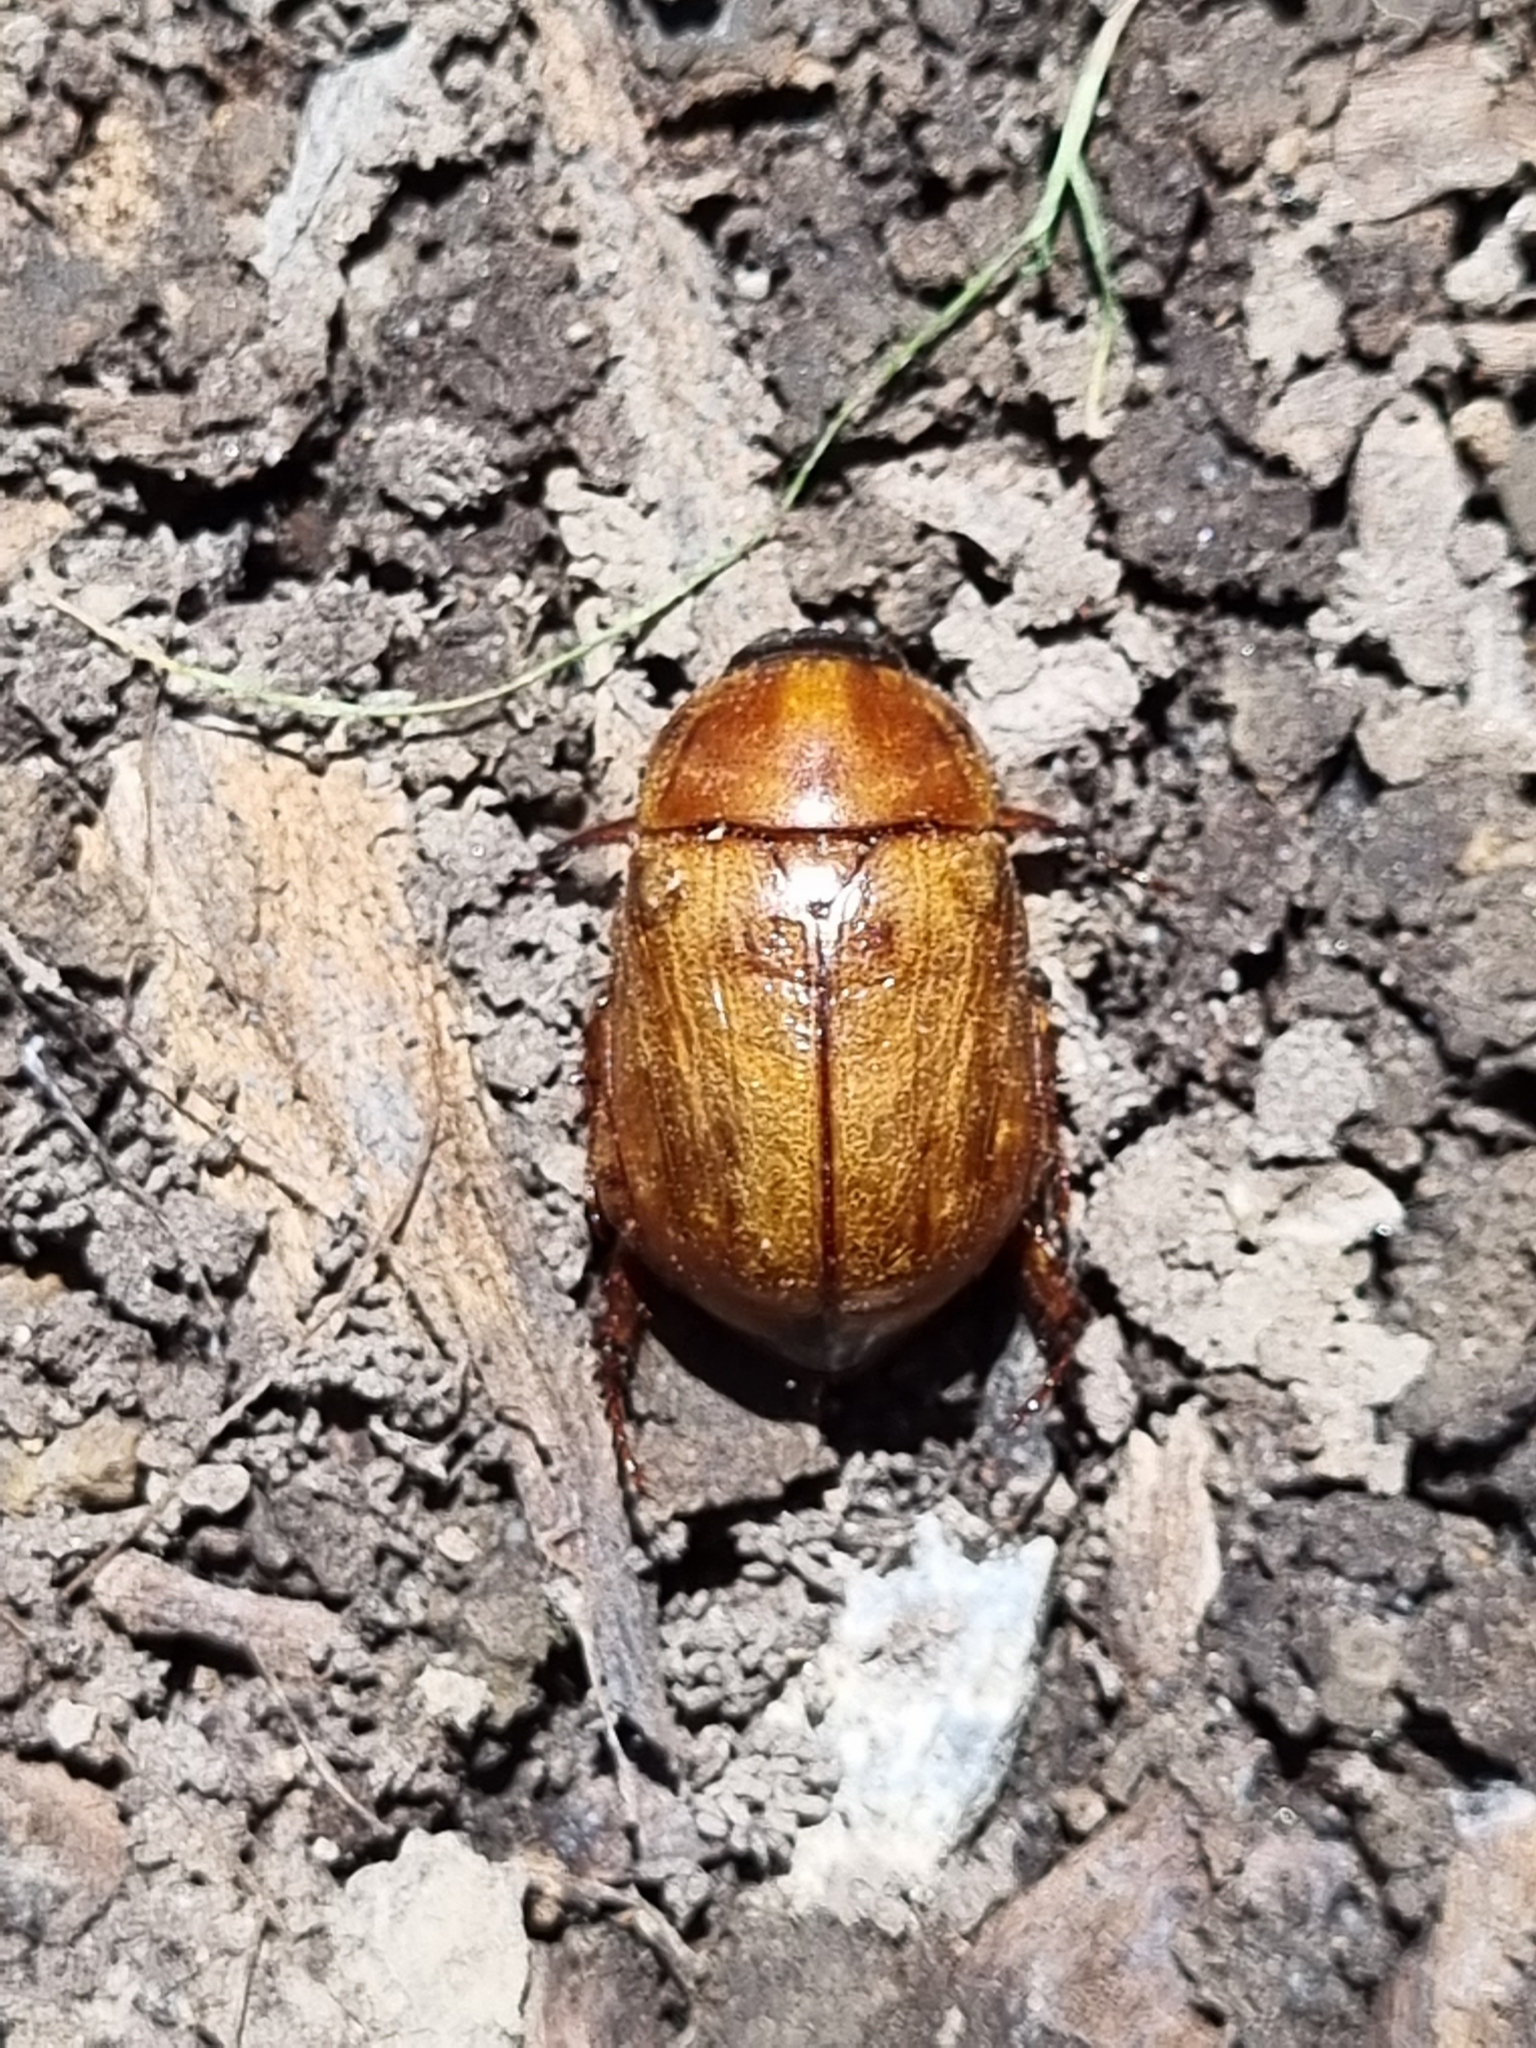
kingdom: Animalia
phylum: Arthropoda
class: Insecta
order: Coleoptera
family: Scarabaeidae
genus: Cyclocephala
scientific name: Cyclocephala signaticollis
